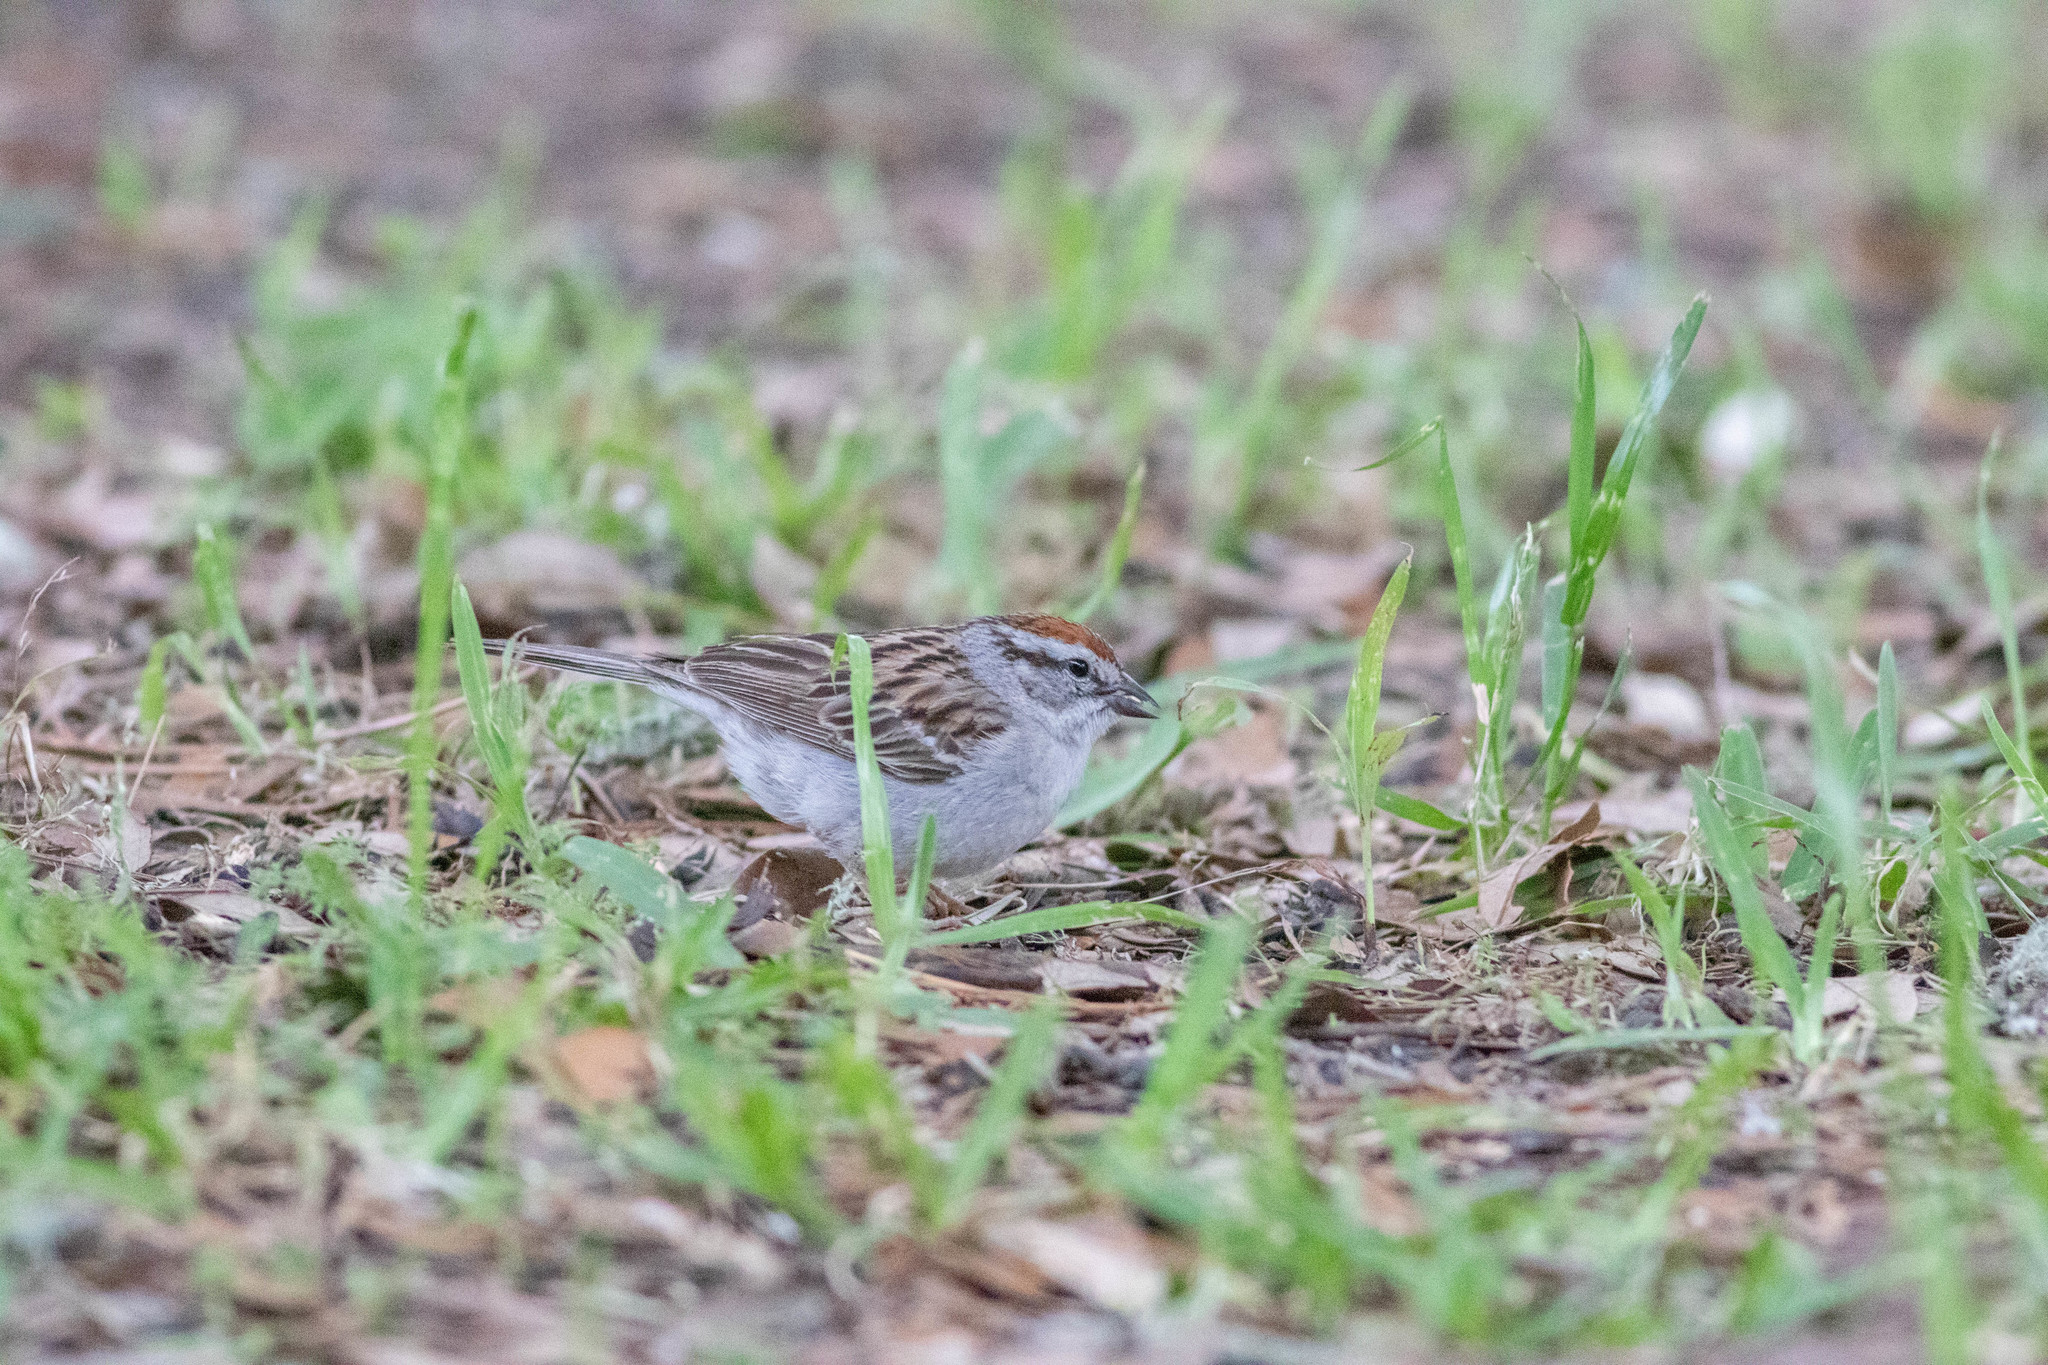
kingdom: Animalia
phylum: Chordata
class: Aves
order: Passeriformes
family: Passerellidae
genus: Spizella
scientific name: Spizella passerina
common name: Chipping sparrow
